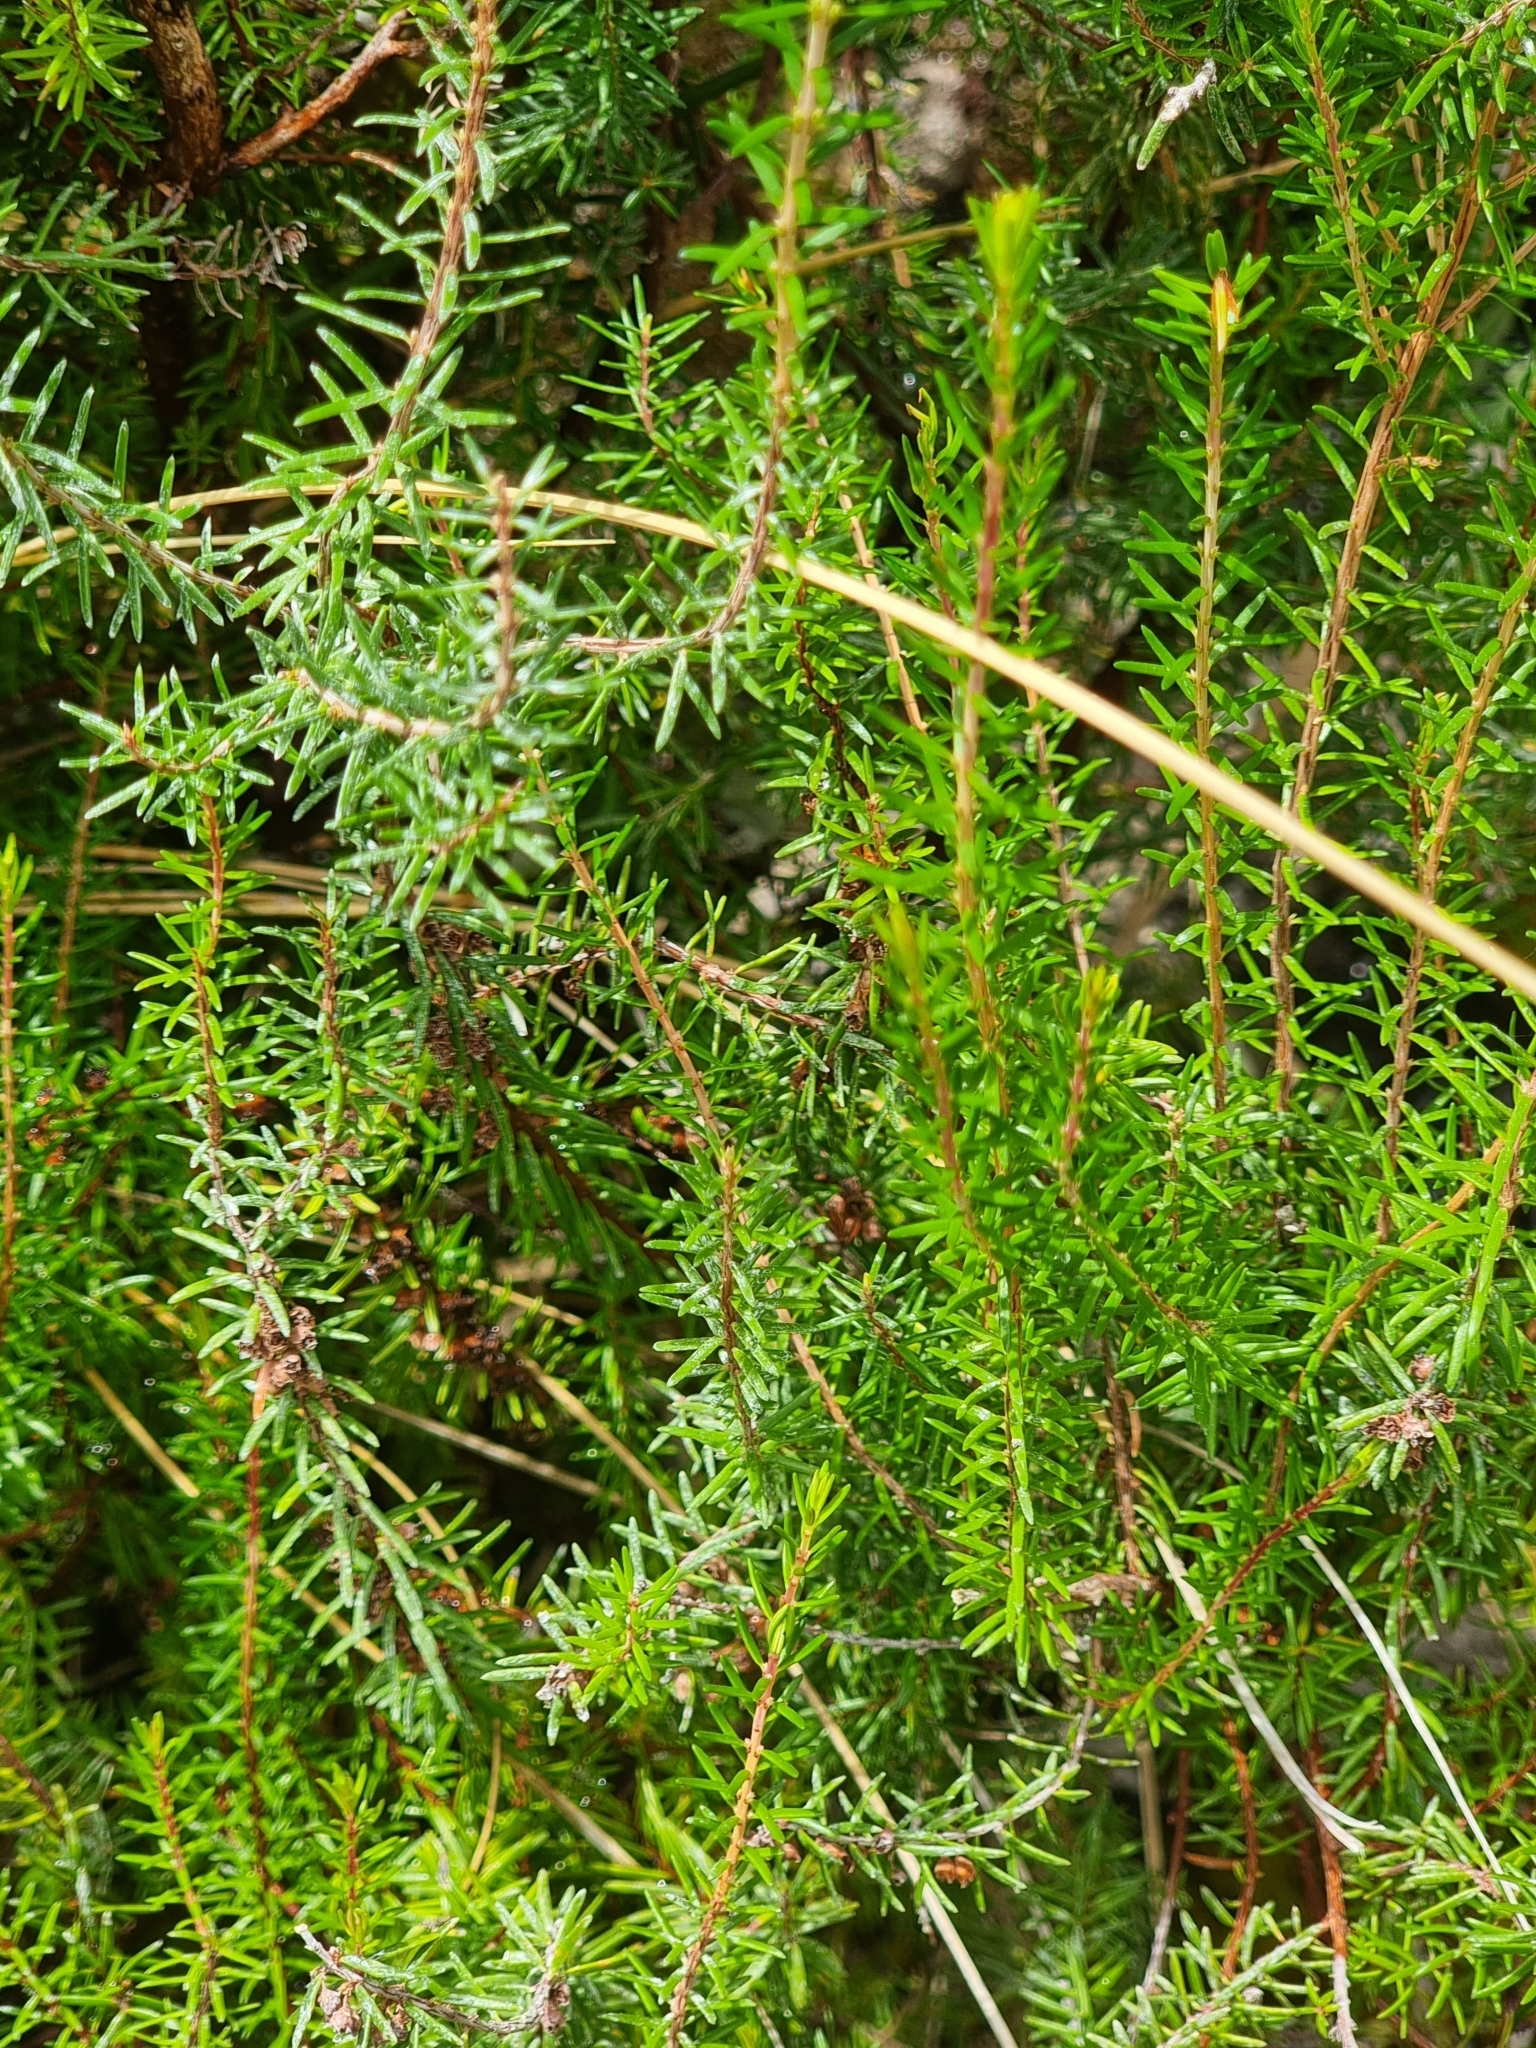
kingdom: Plantae
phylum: Tracheophyta
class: Magnoliopsida
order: Ericales
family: Ericaceae
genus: Erica
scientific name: Erica platycodon
